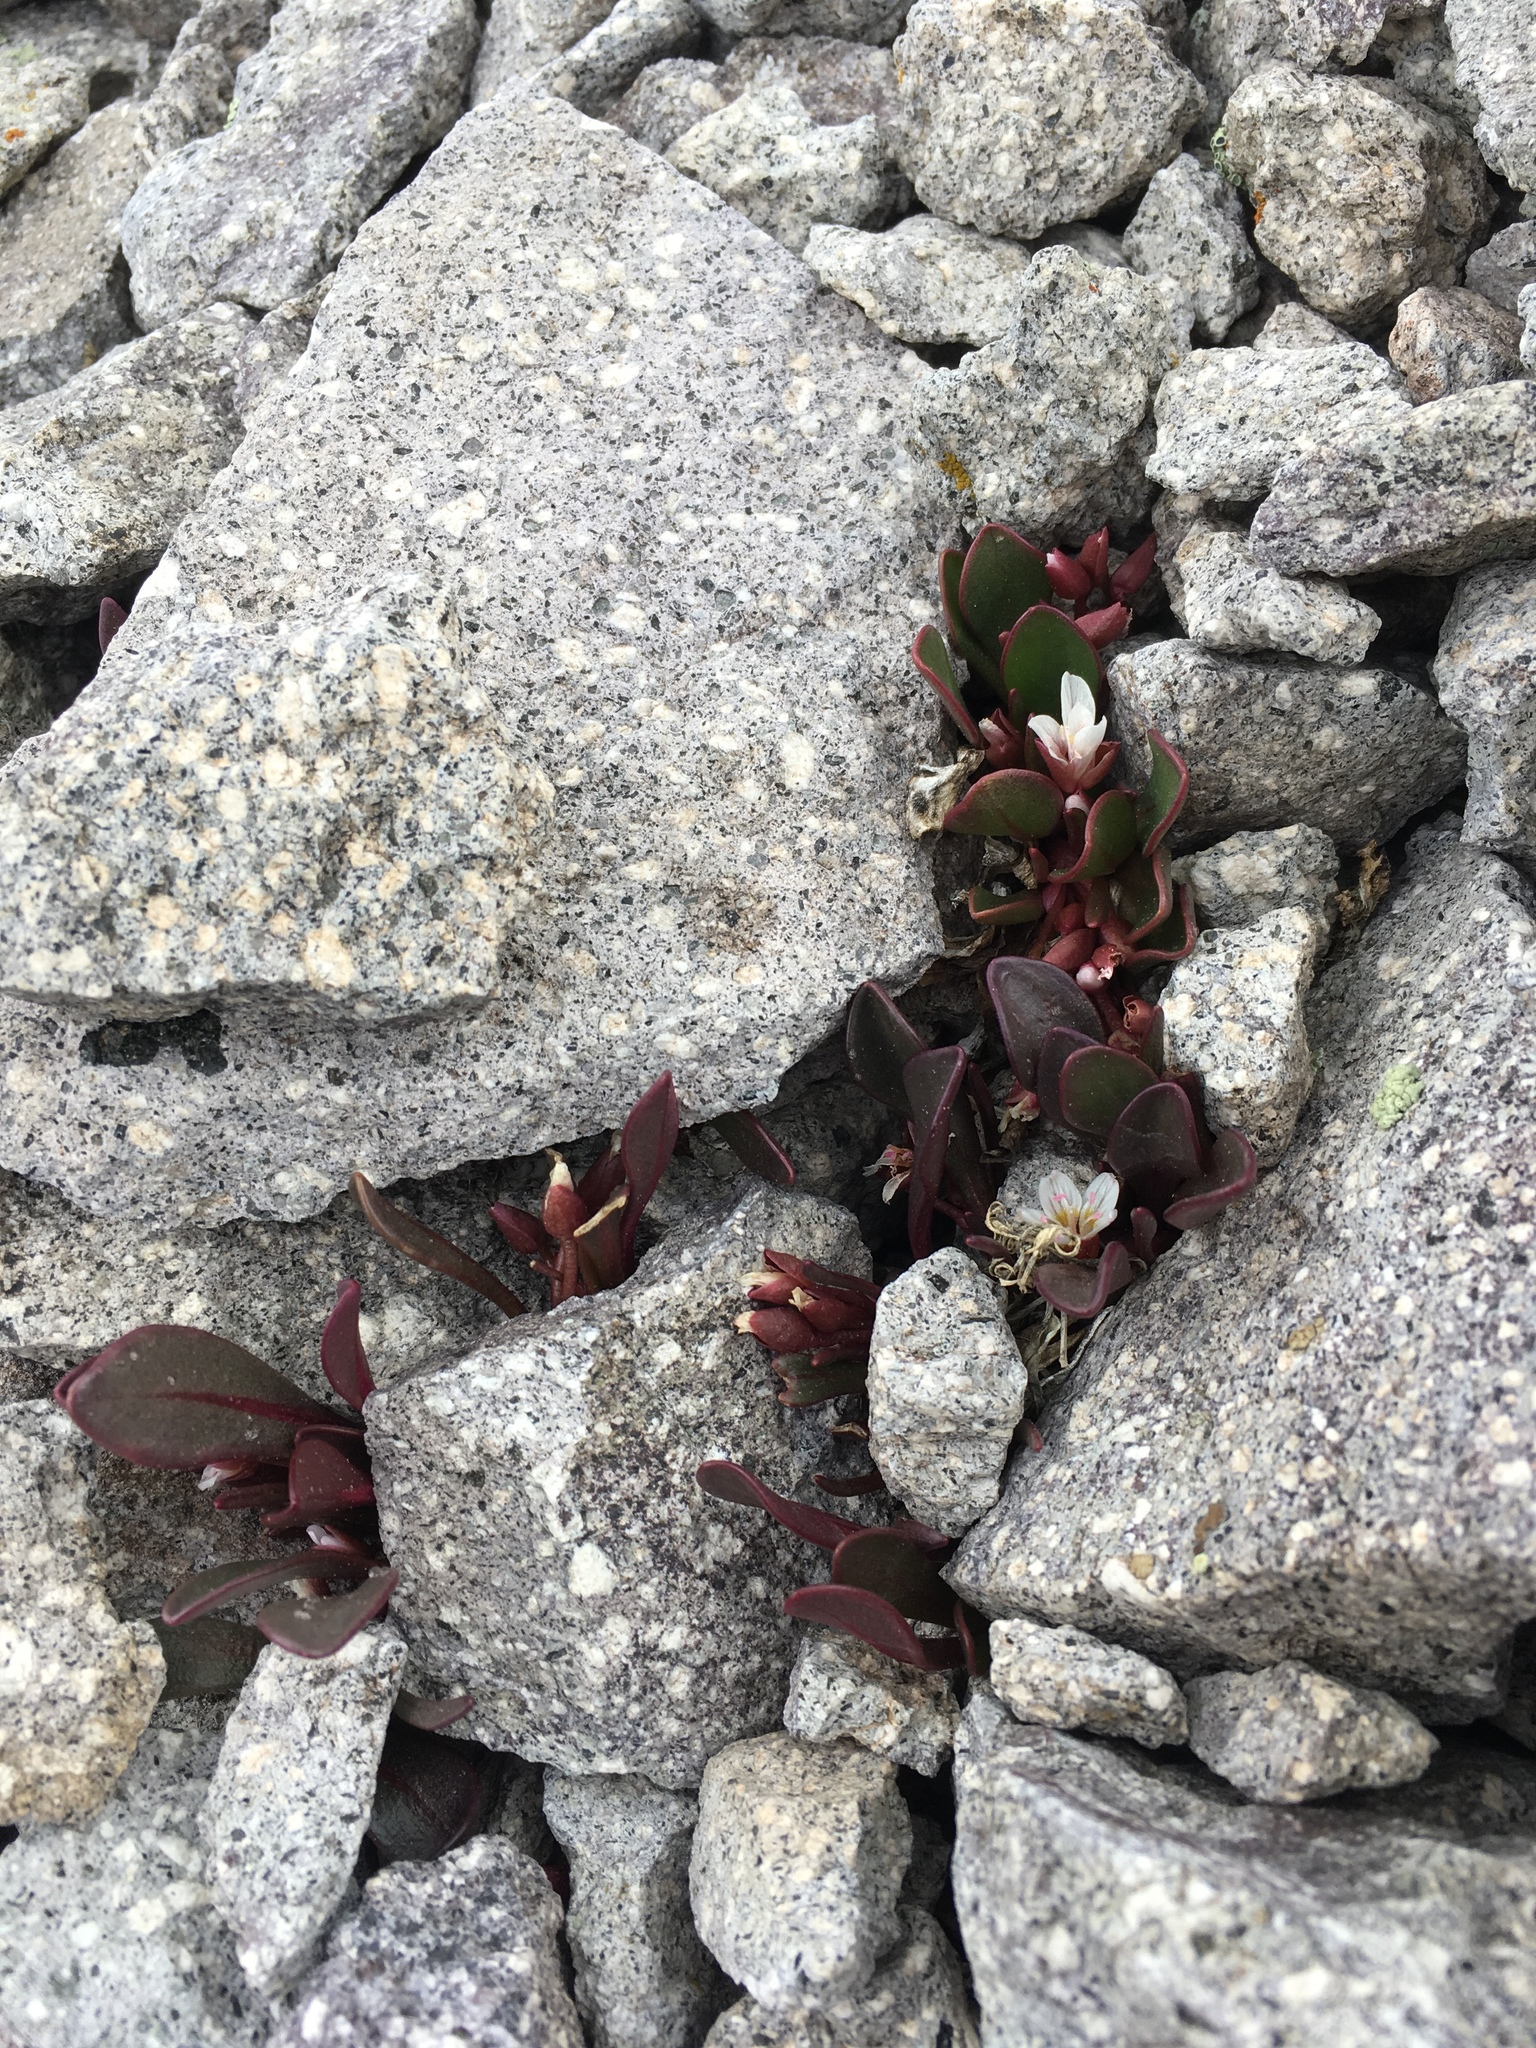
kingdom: Plantae
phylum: Tracheophyta
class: Magnoliopsida
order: Caryophyllales
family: Montiaceae
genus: Claytonia
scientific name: Claytonia megarhiza
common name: Alpine spring beauty
